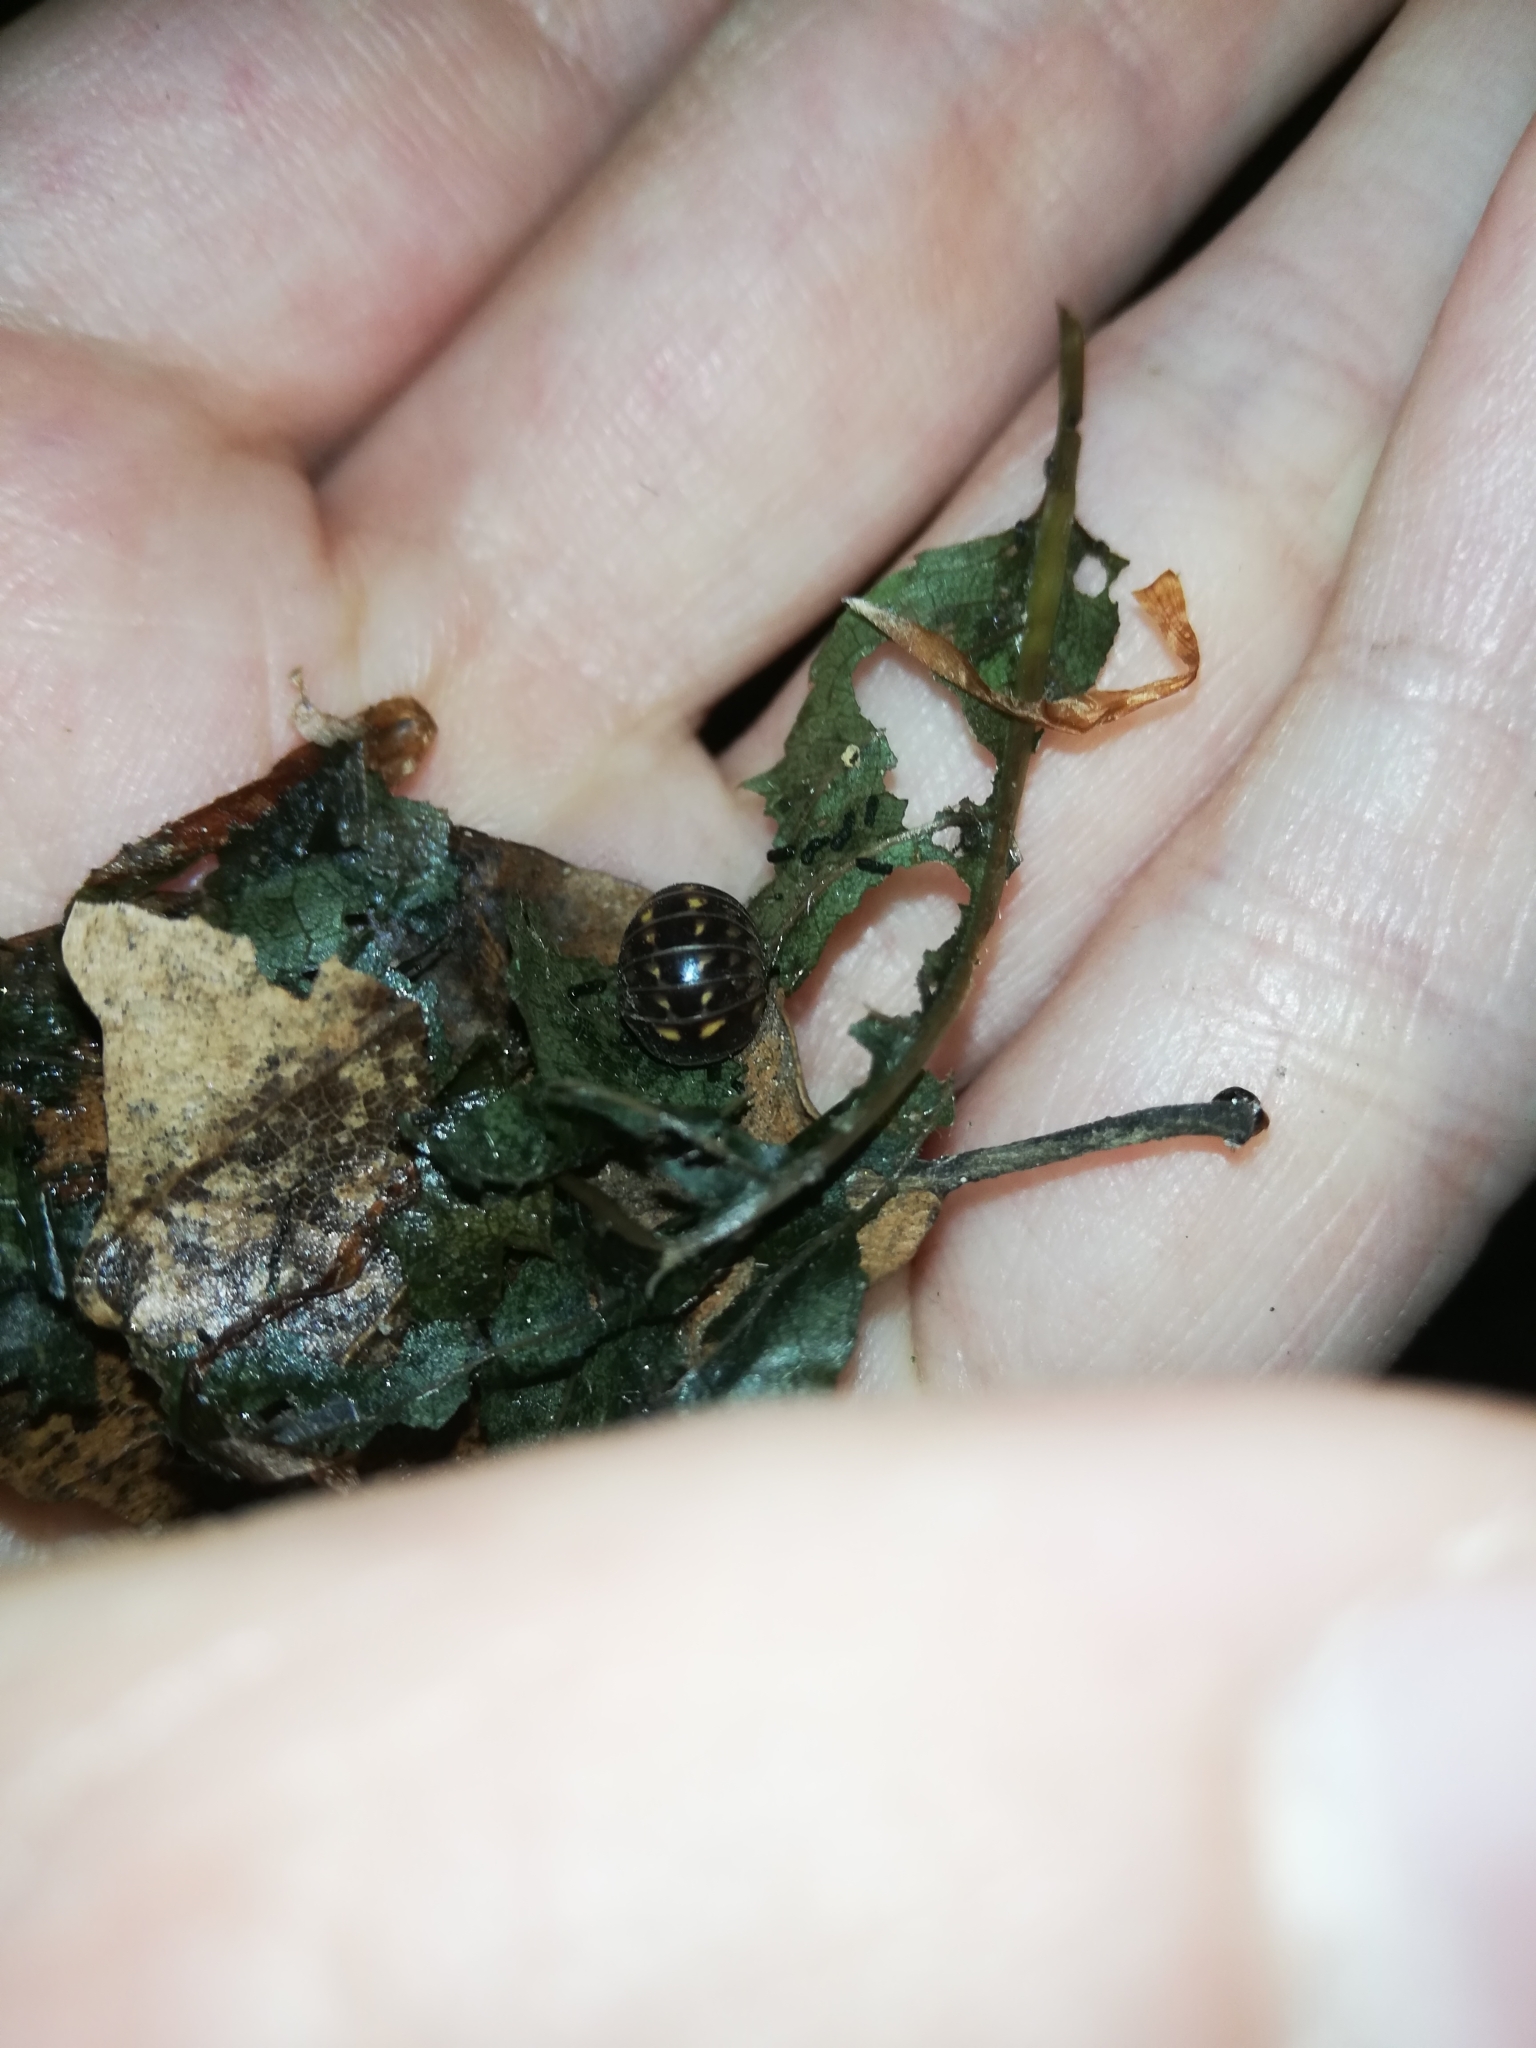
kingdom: Animalia
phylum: Arthropoda
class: Diplopoda
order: Glomerida
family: Glomeridae
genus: Glomeris
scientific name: Glomeris hexasticha
